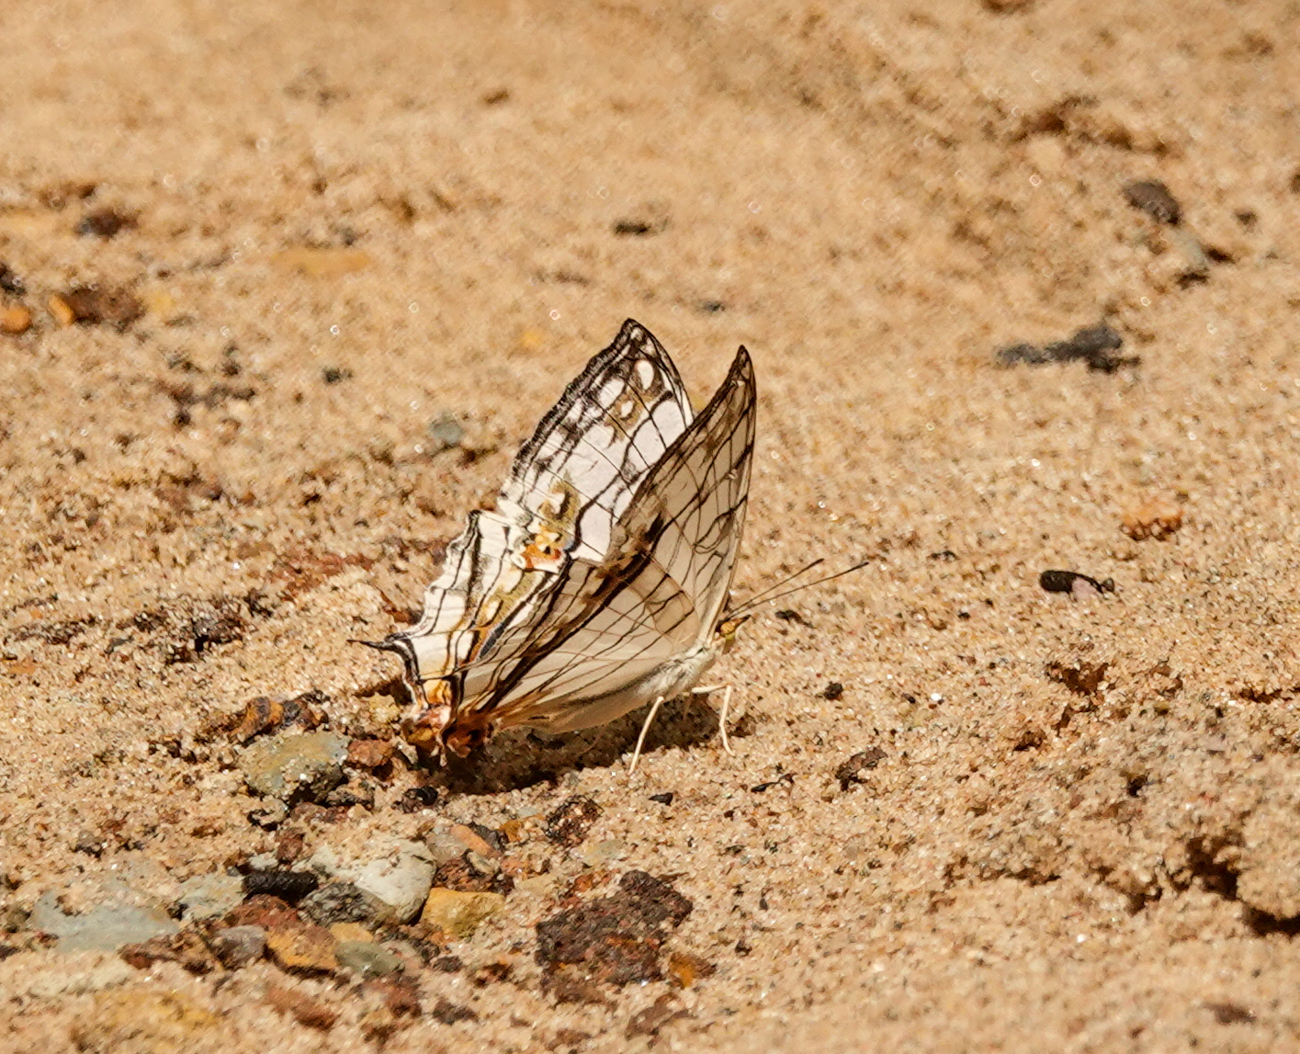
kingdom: Animalia
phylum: Arthropoda
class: Insecta
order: Lepidoptera
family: Nymphalidae
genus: Cyrestis
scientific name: Cyrestis thyodamas
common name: Common mapwing
